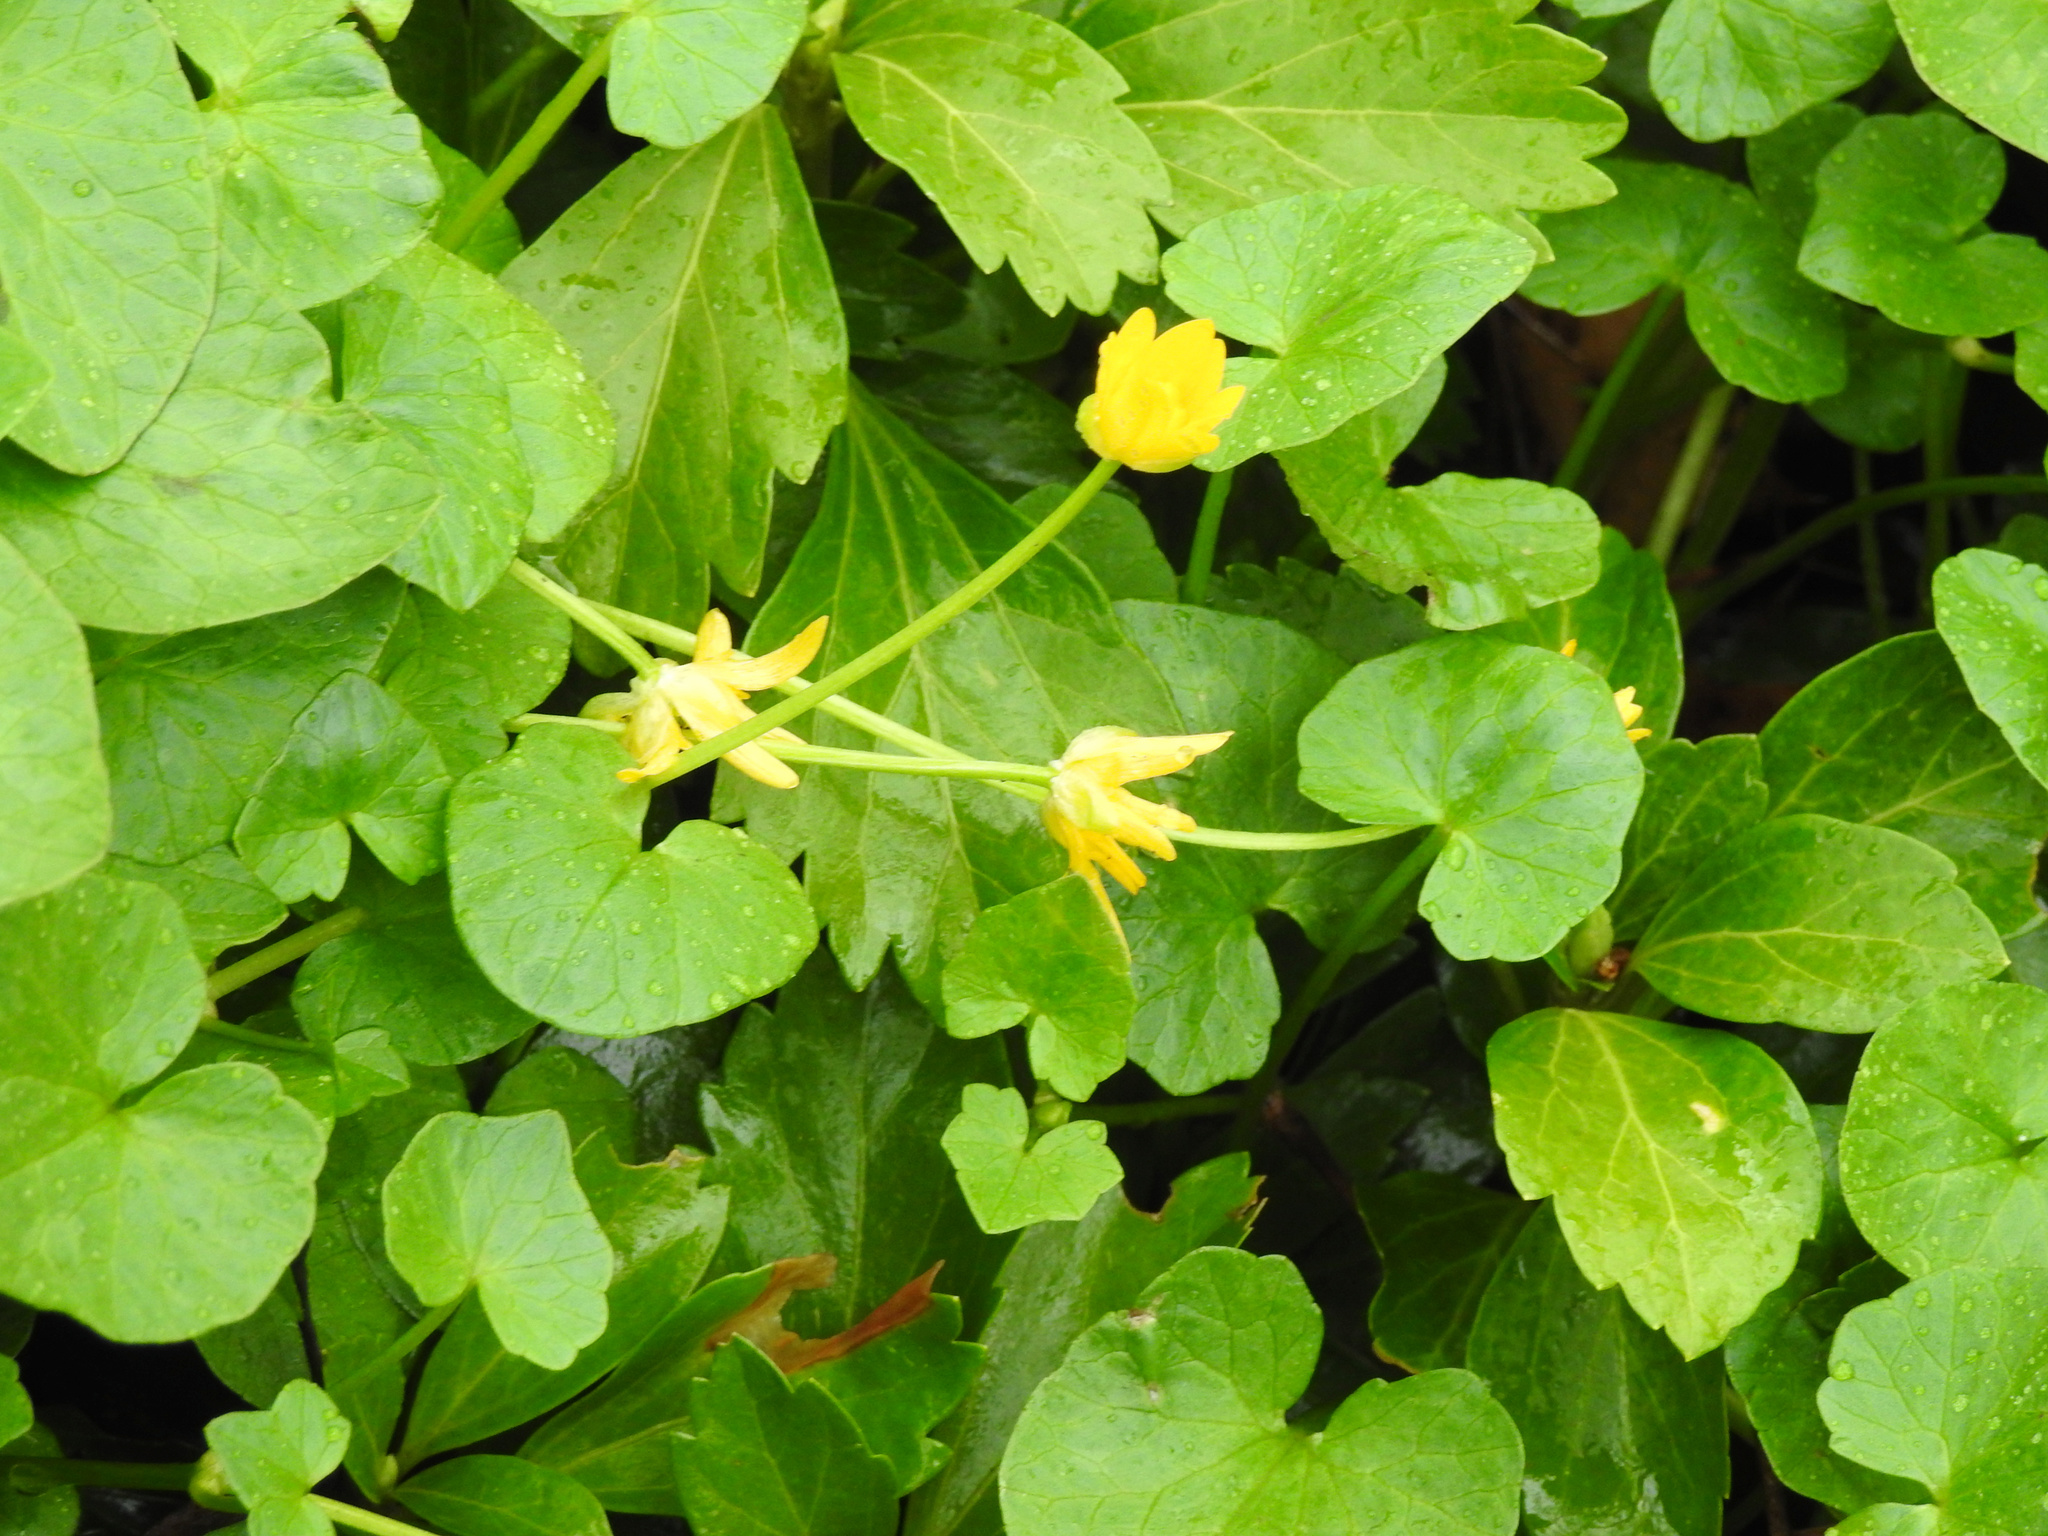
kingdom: Plantae
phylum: Tracheophyta
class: Magnoliopsida
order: Ranunculales
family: Ranunculaceae
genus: Ficaria
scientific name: Ficaria verna
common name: Lesser celandine
